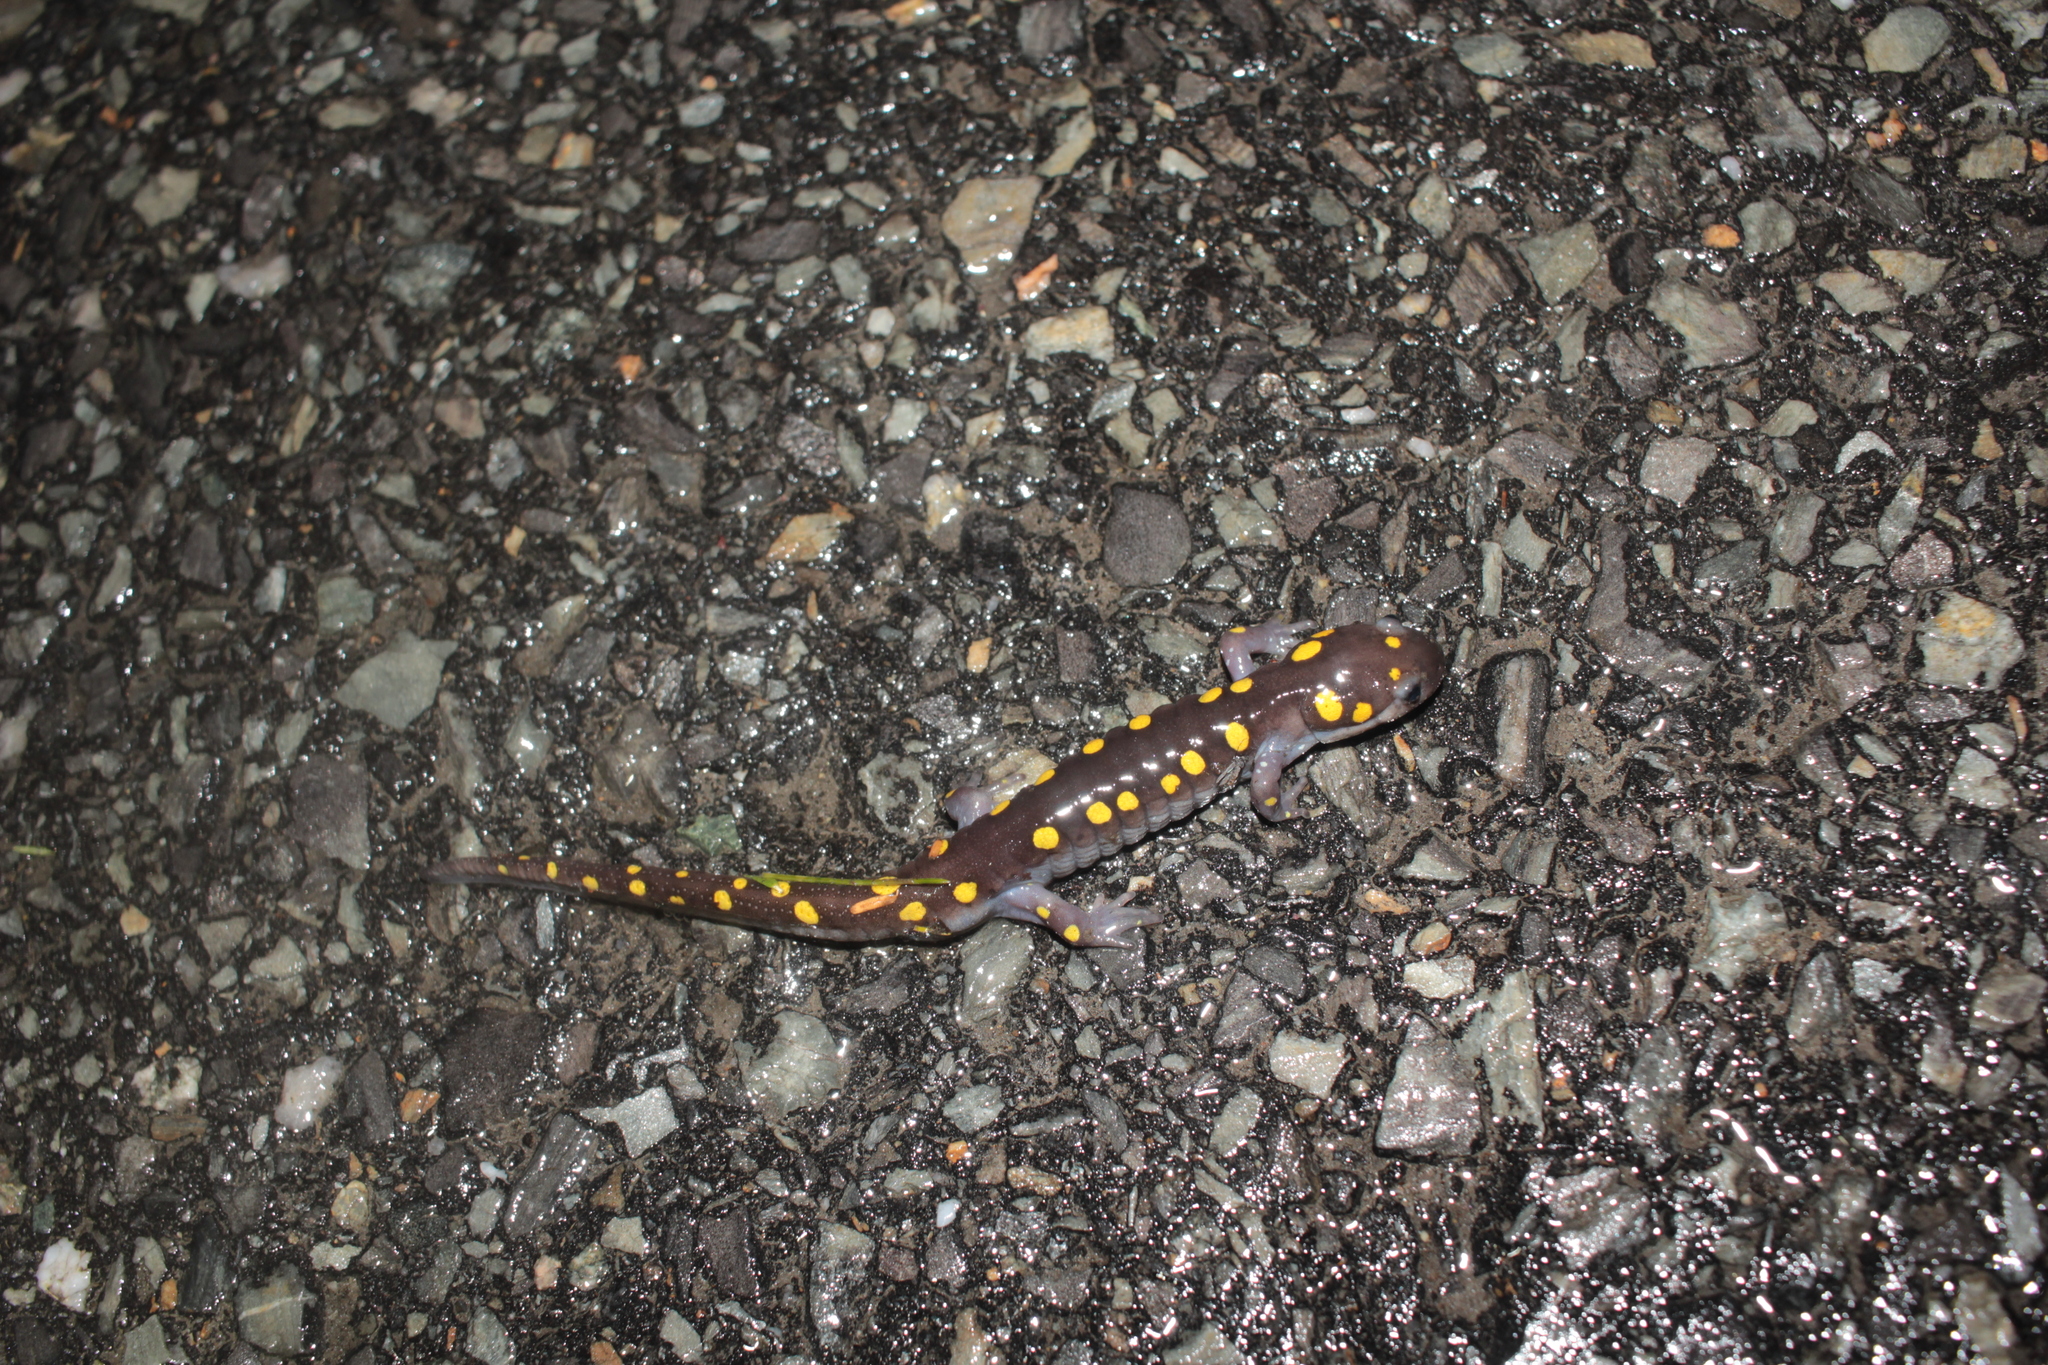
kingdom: Animalia
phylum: Chordata
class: Amphibia
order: Caudata
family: Ambystomatidae
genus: Ambystoma
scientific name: Ambystoma maculatum
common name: Spotted salamander
